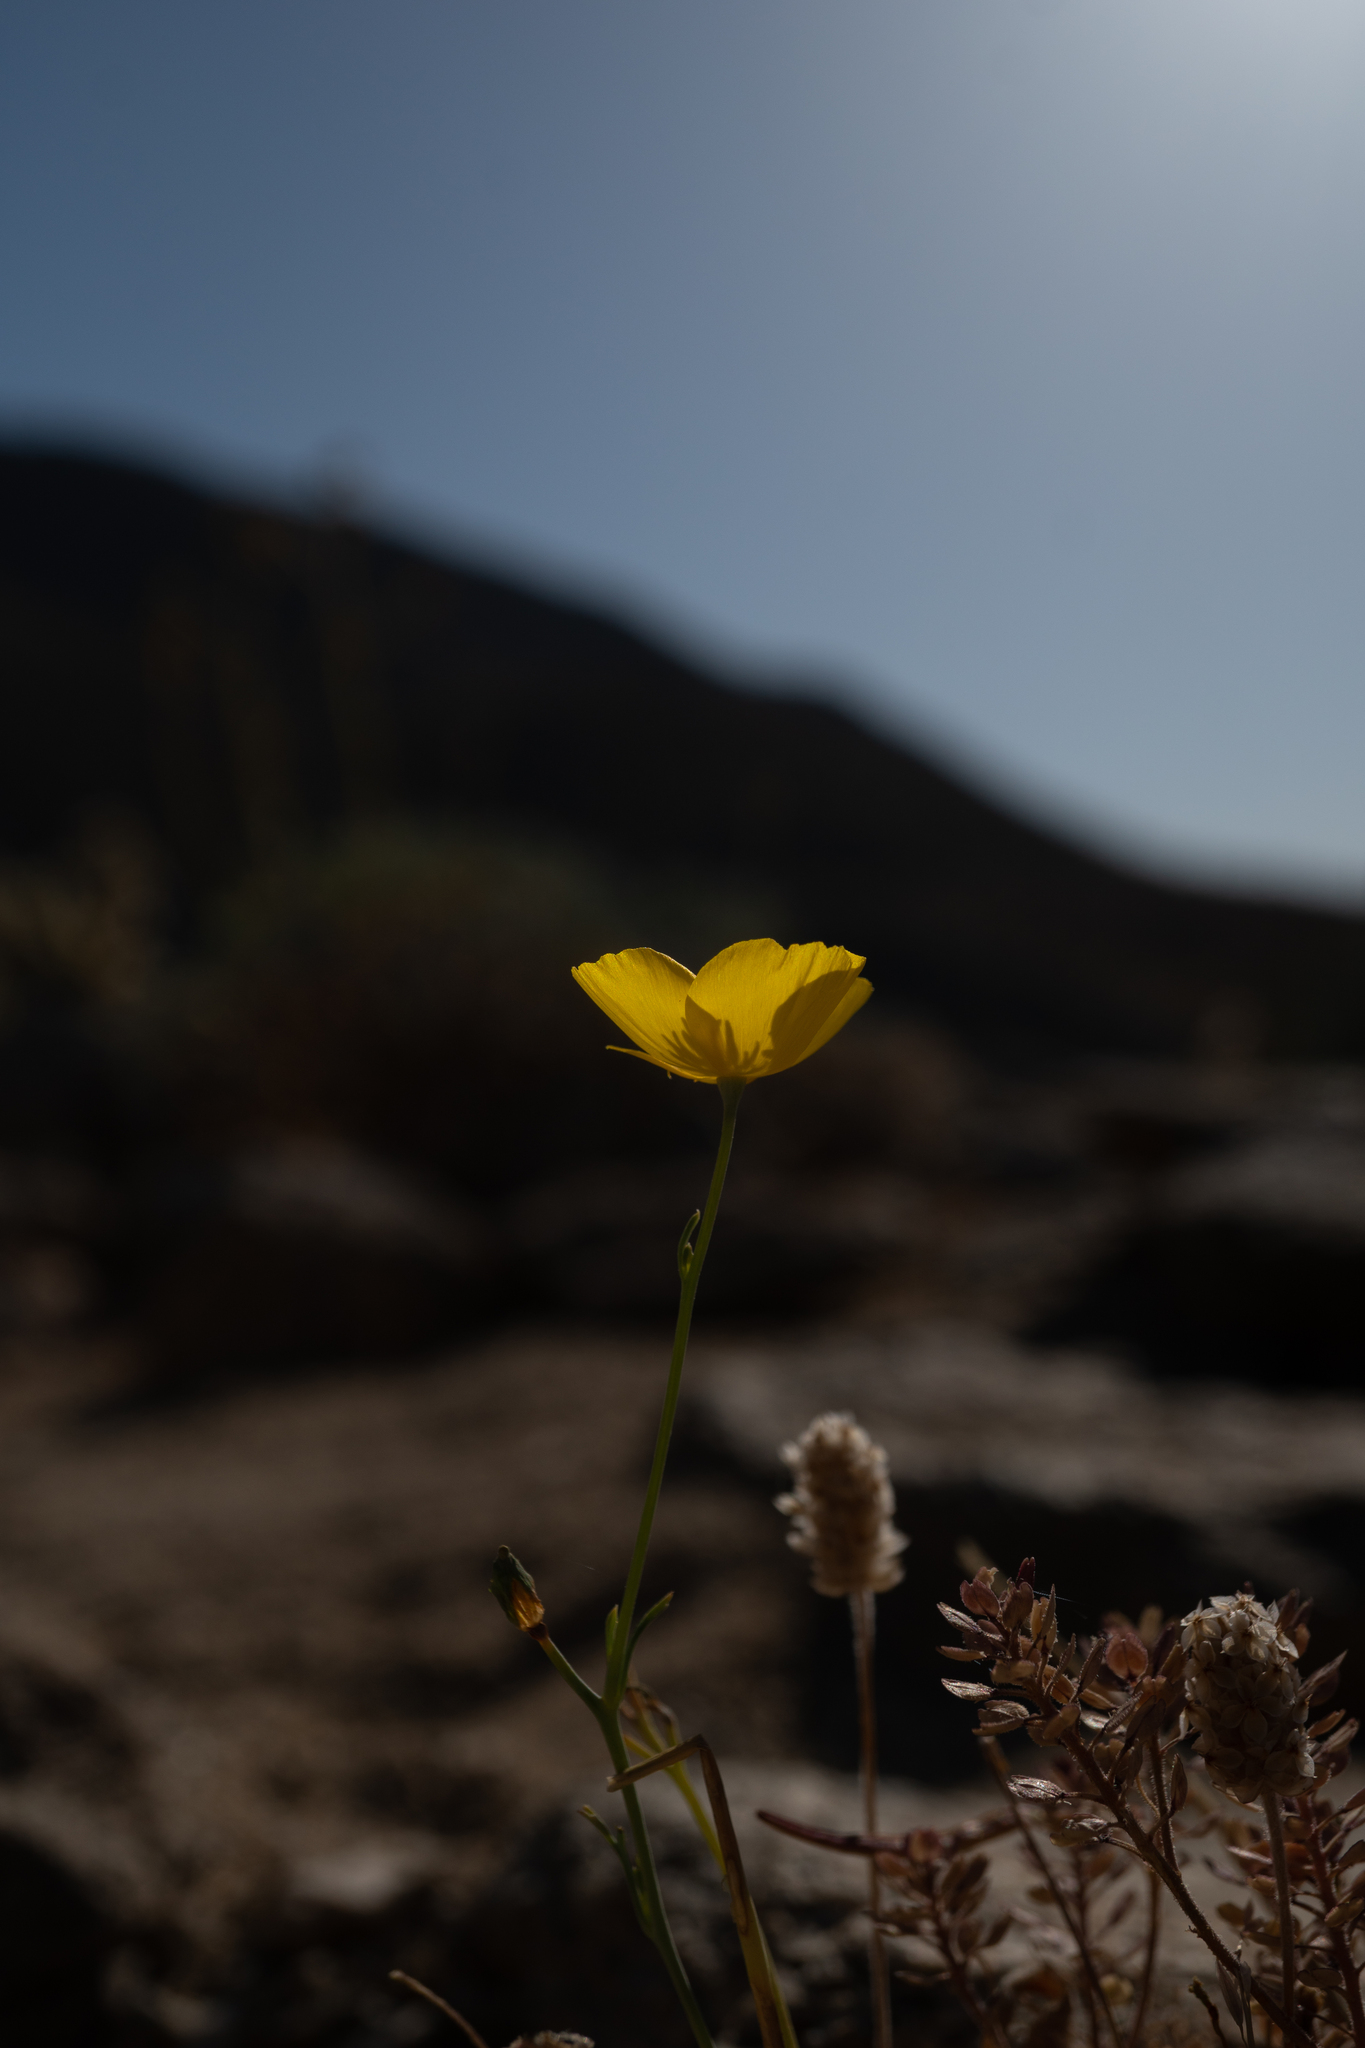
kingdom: Plantae
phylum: Tracheophyta
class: Magnoliopsida
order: Ranunculales
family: Papaveraceae
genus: Eschscholzia
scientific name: Eschscholzia parishii
